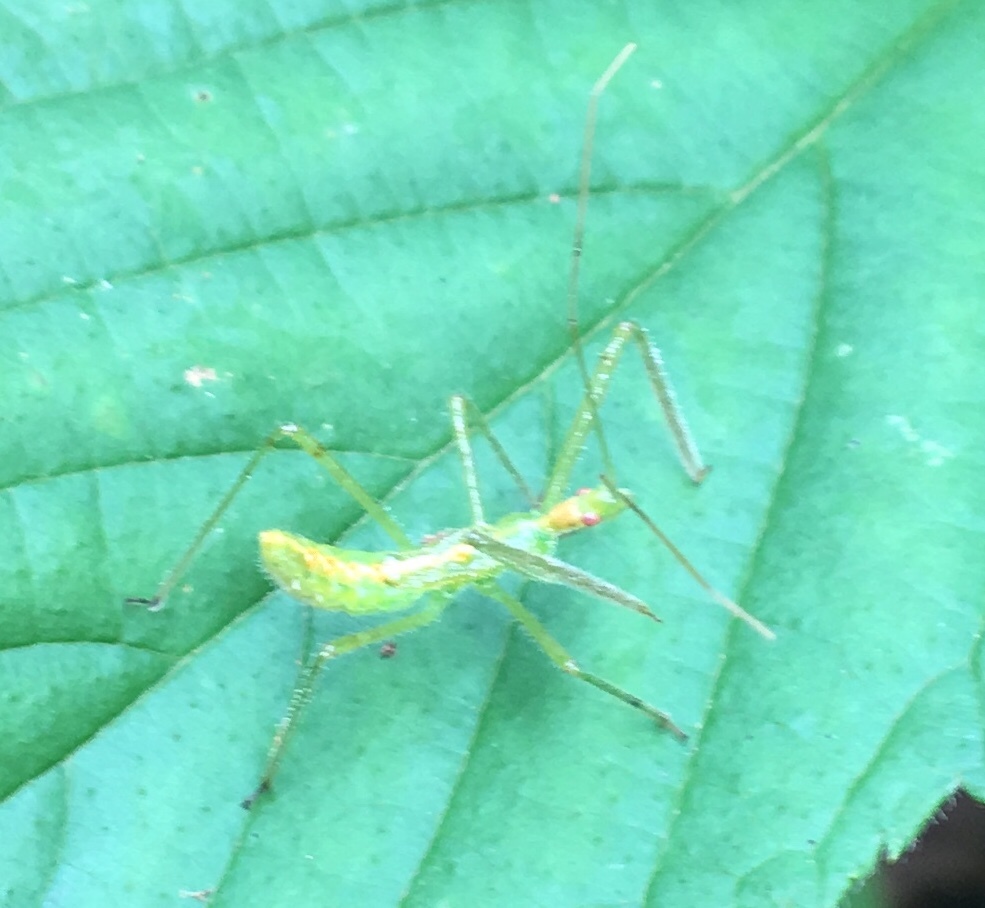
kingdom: Animalia
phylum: Arthropoda
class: Insecta
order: Hemiptera
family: Reduviidae
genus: Zelus
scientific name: Zelus luridus
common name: Pale green assassin bug
